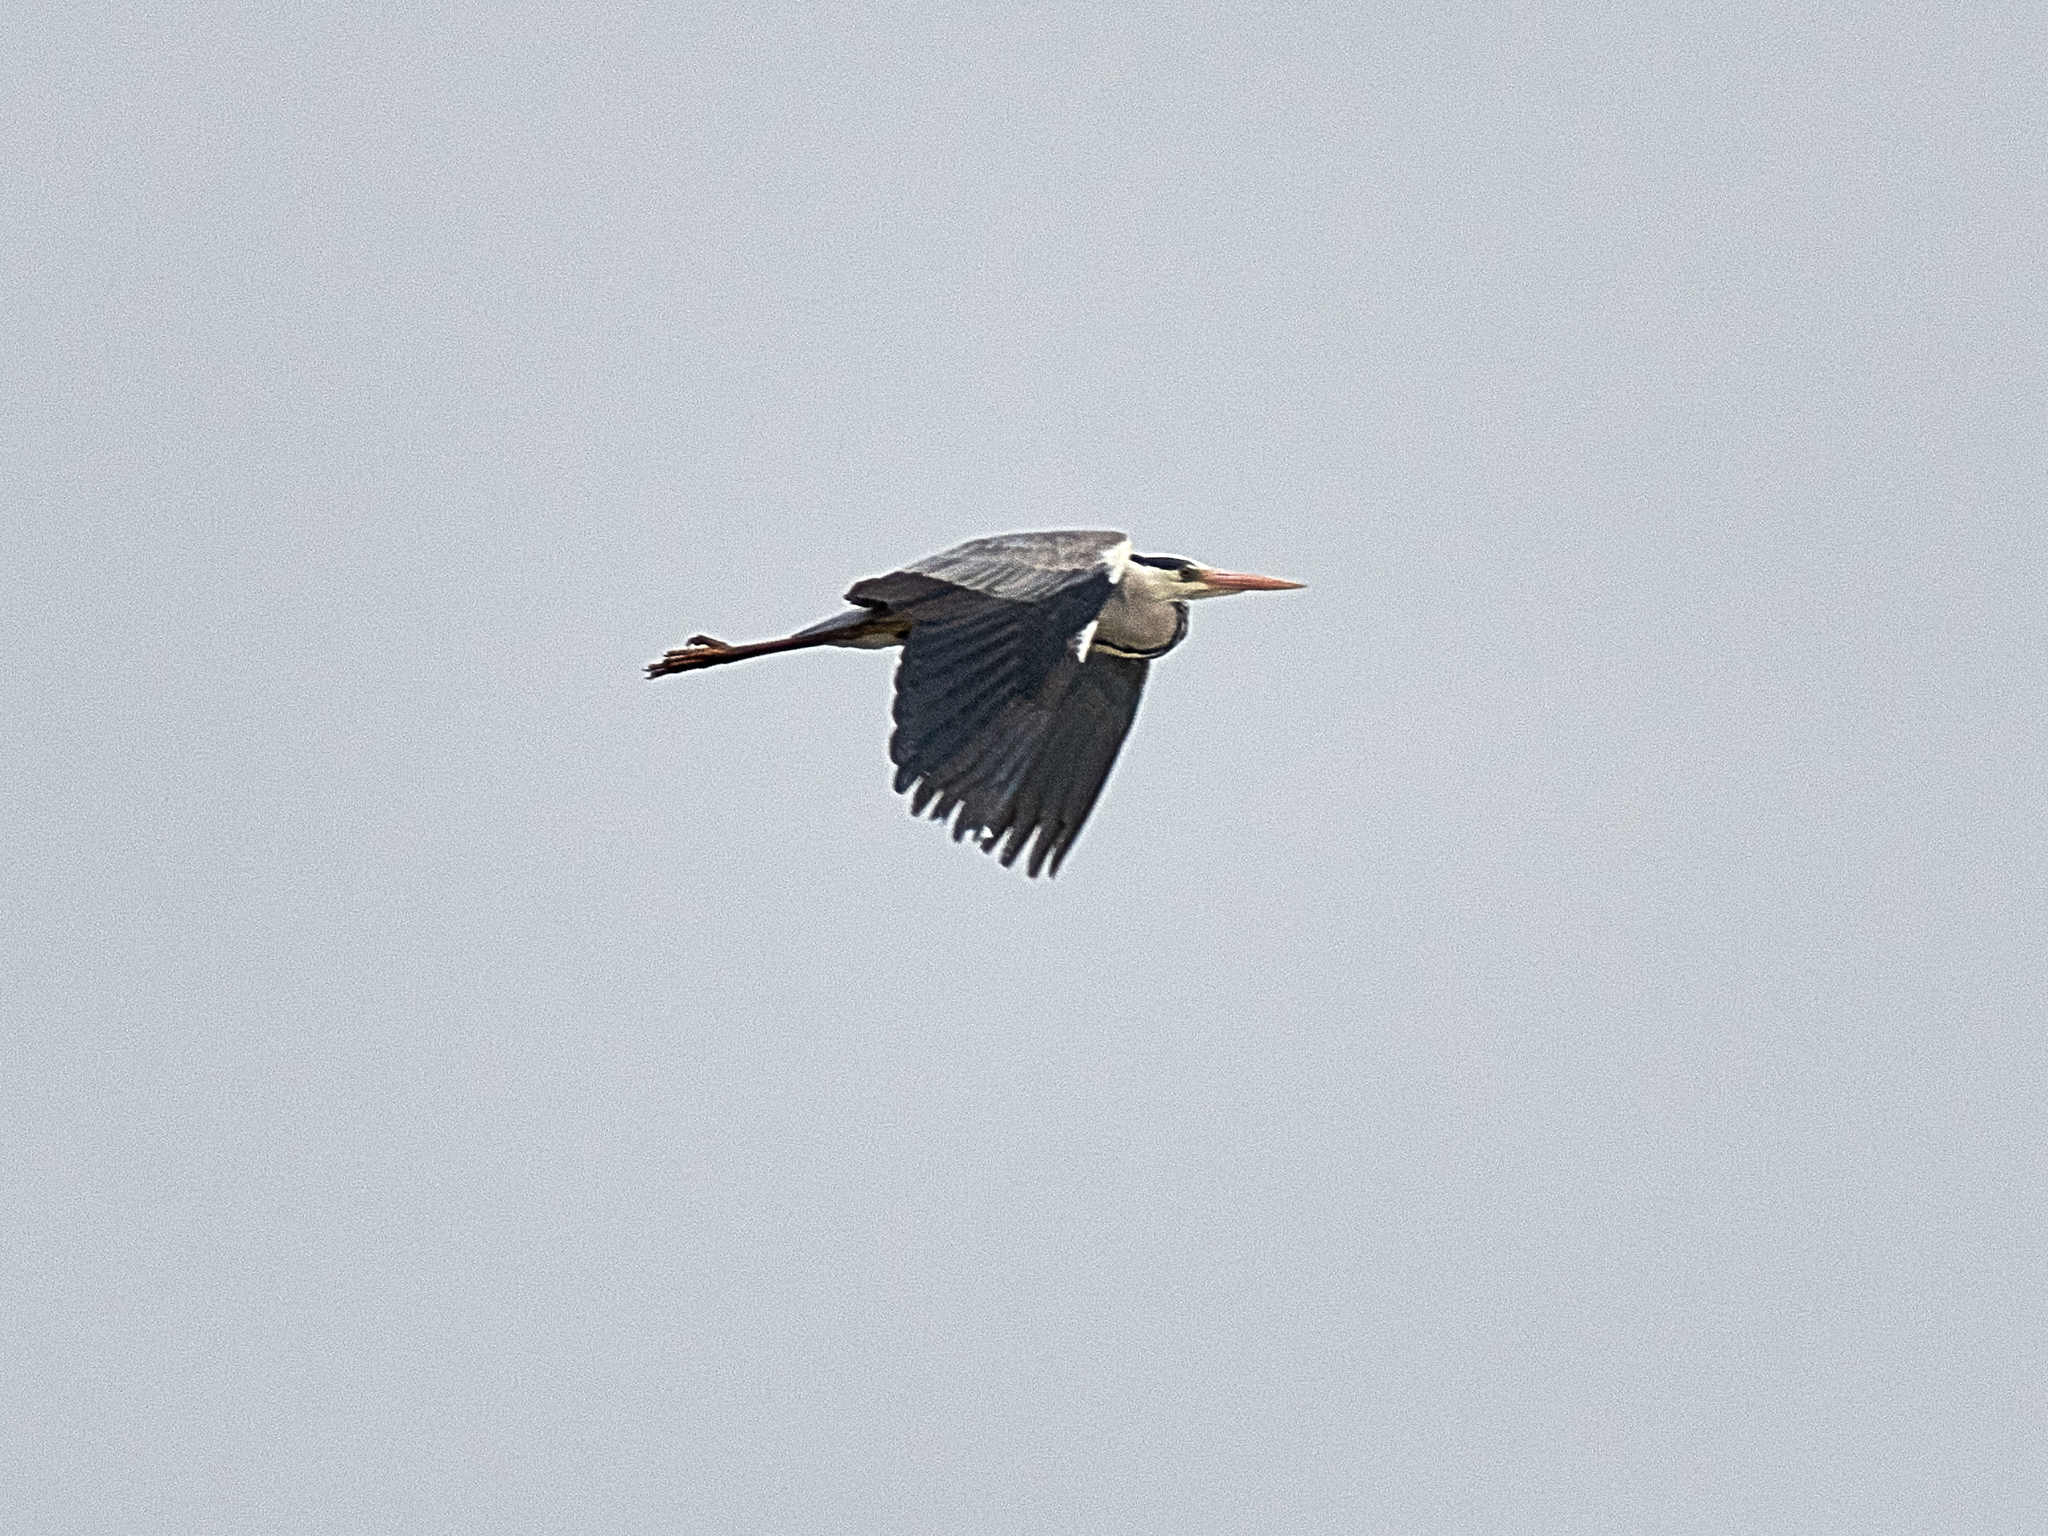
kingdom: Animalia
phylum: Chordata
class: Aves
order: Pelecaniformes
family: Ardeidae
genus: Ardea
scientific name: Ardea cinerea
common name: Grey heron
